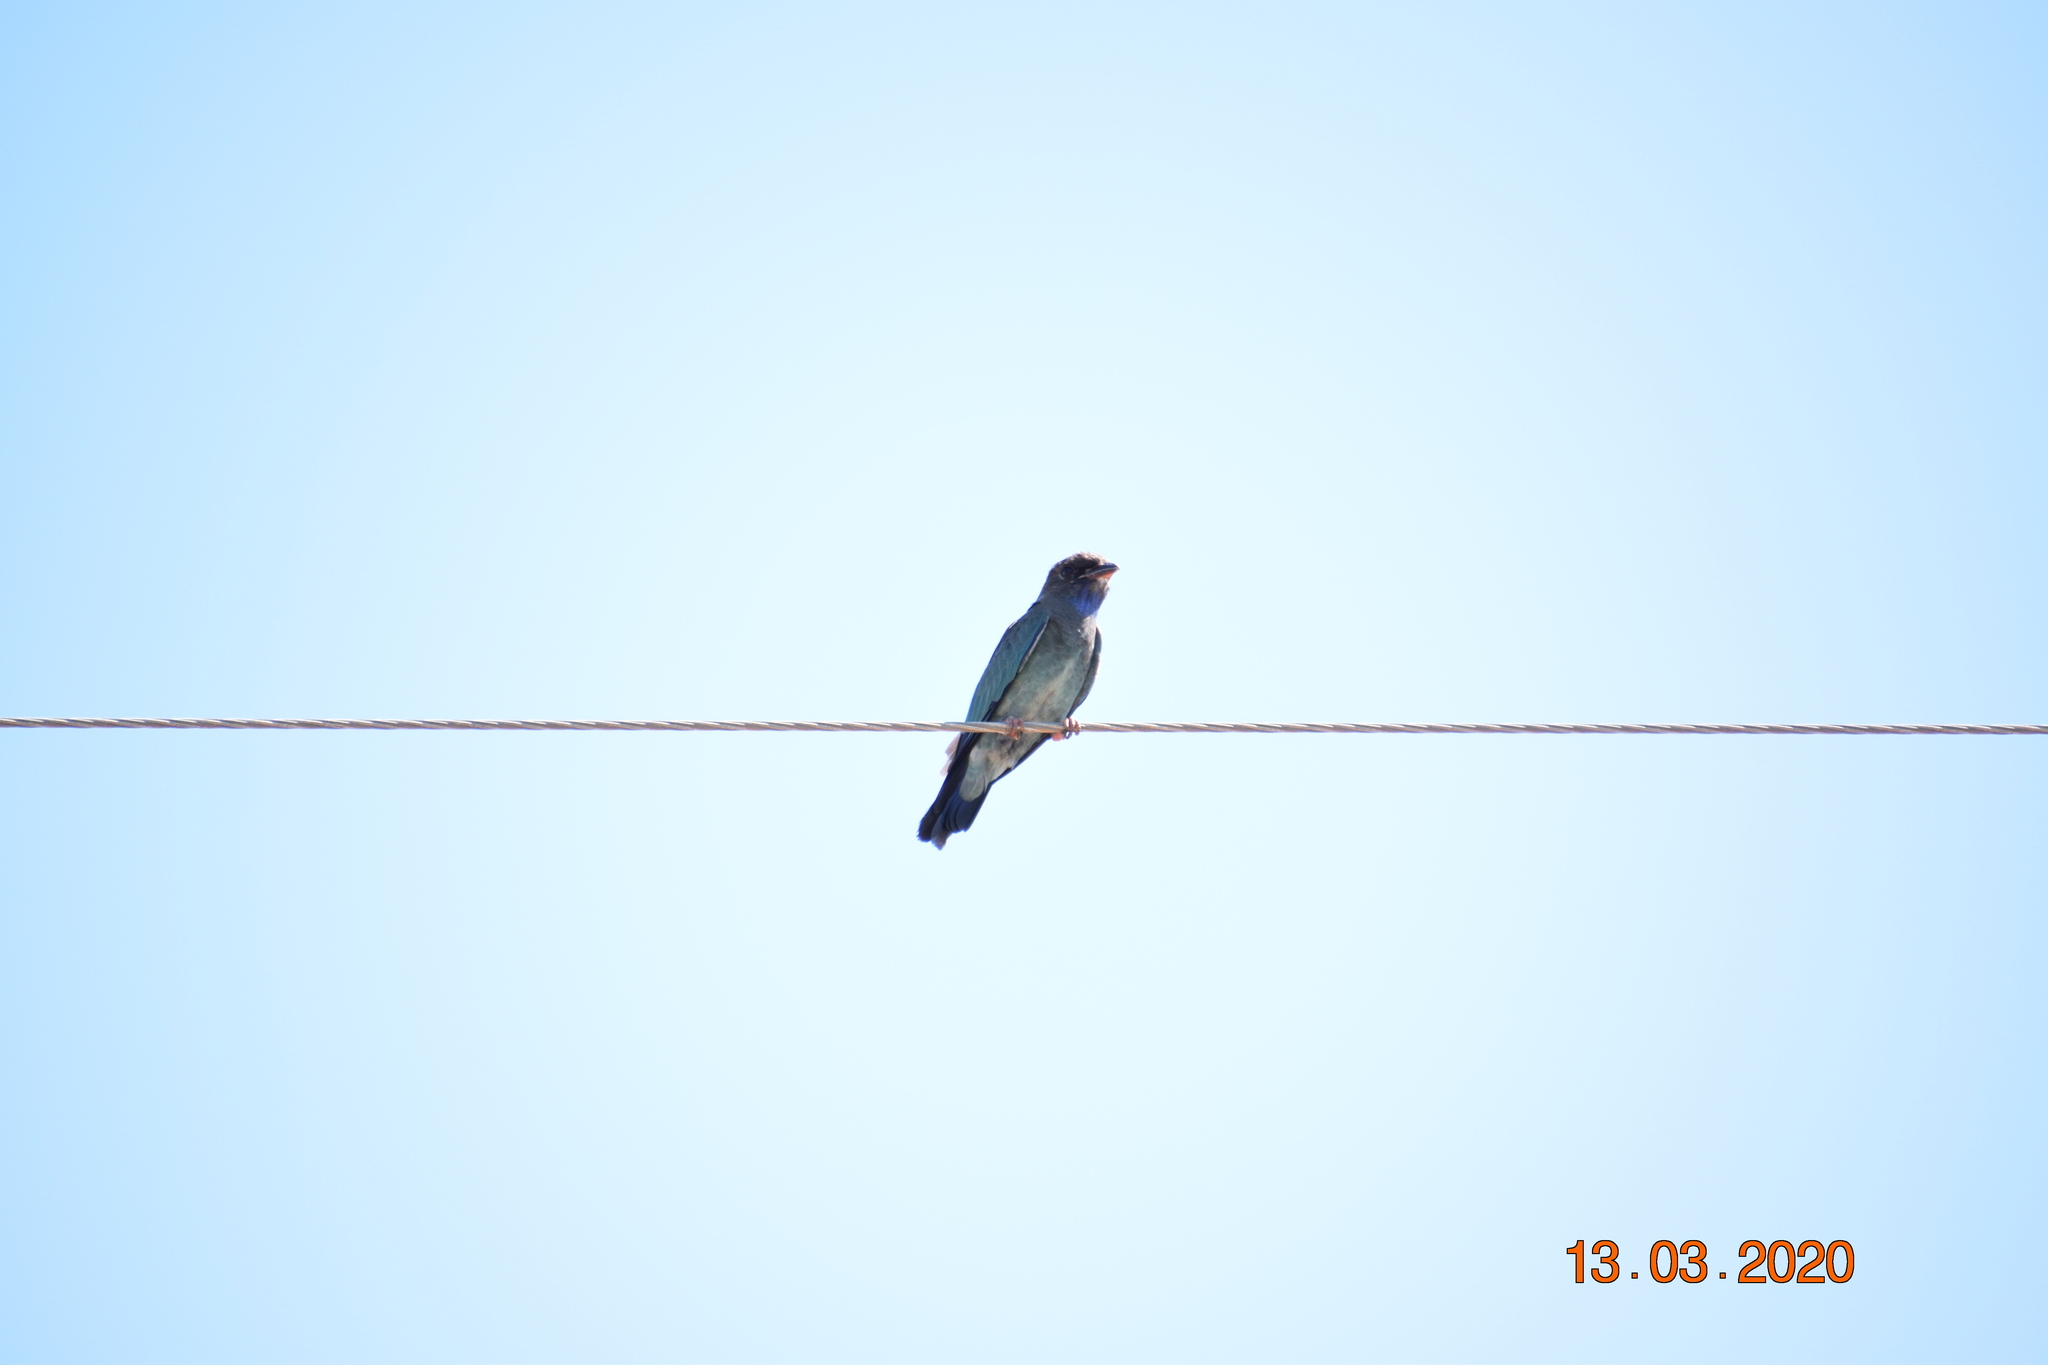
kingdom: Animalia
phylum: Chordata
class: Aves
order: Coraciiformes
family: Coraciidae
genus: Eurystomus
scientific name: Eurystomus orientalis
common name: Oriental dollarbird
